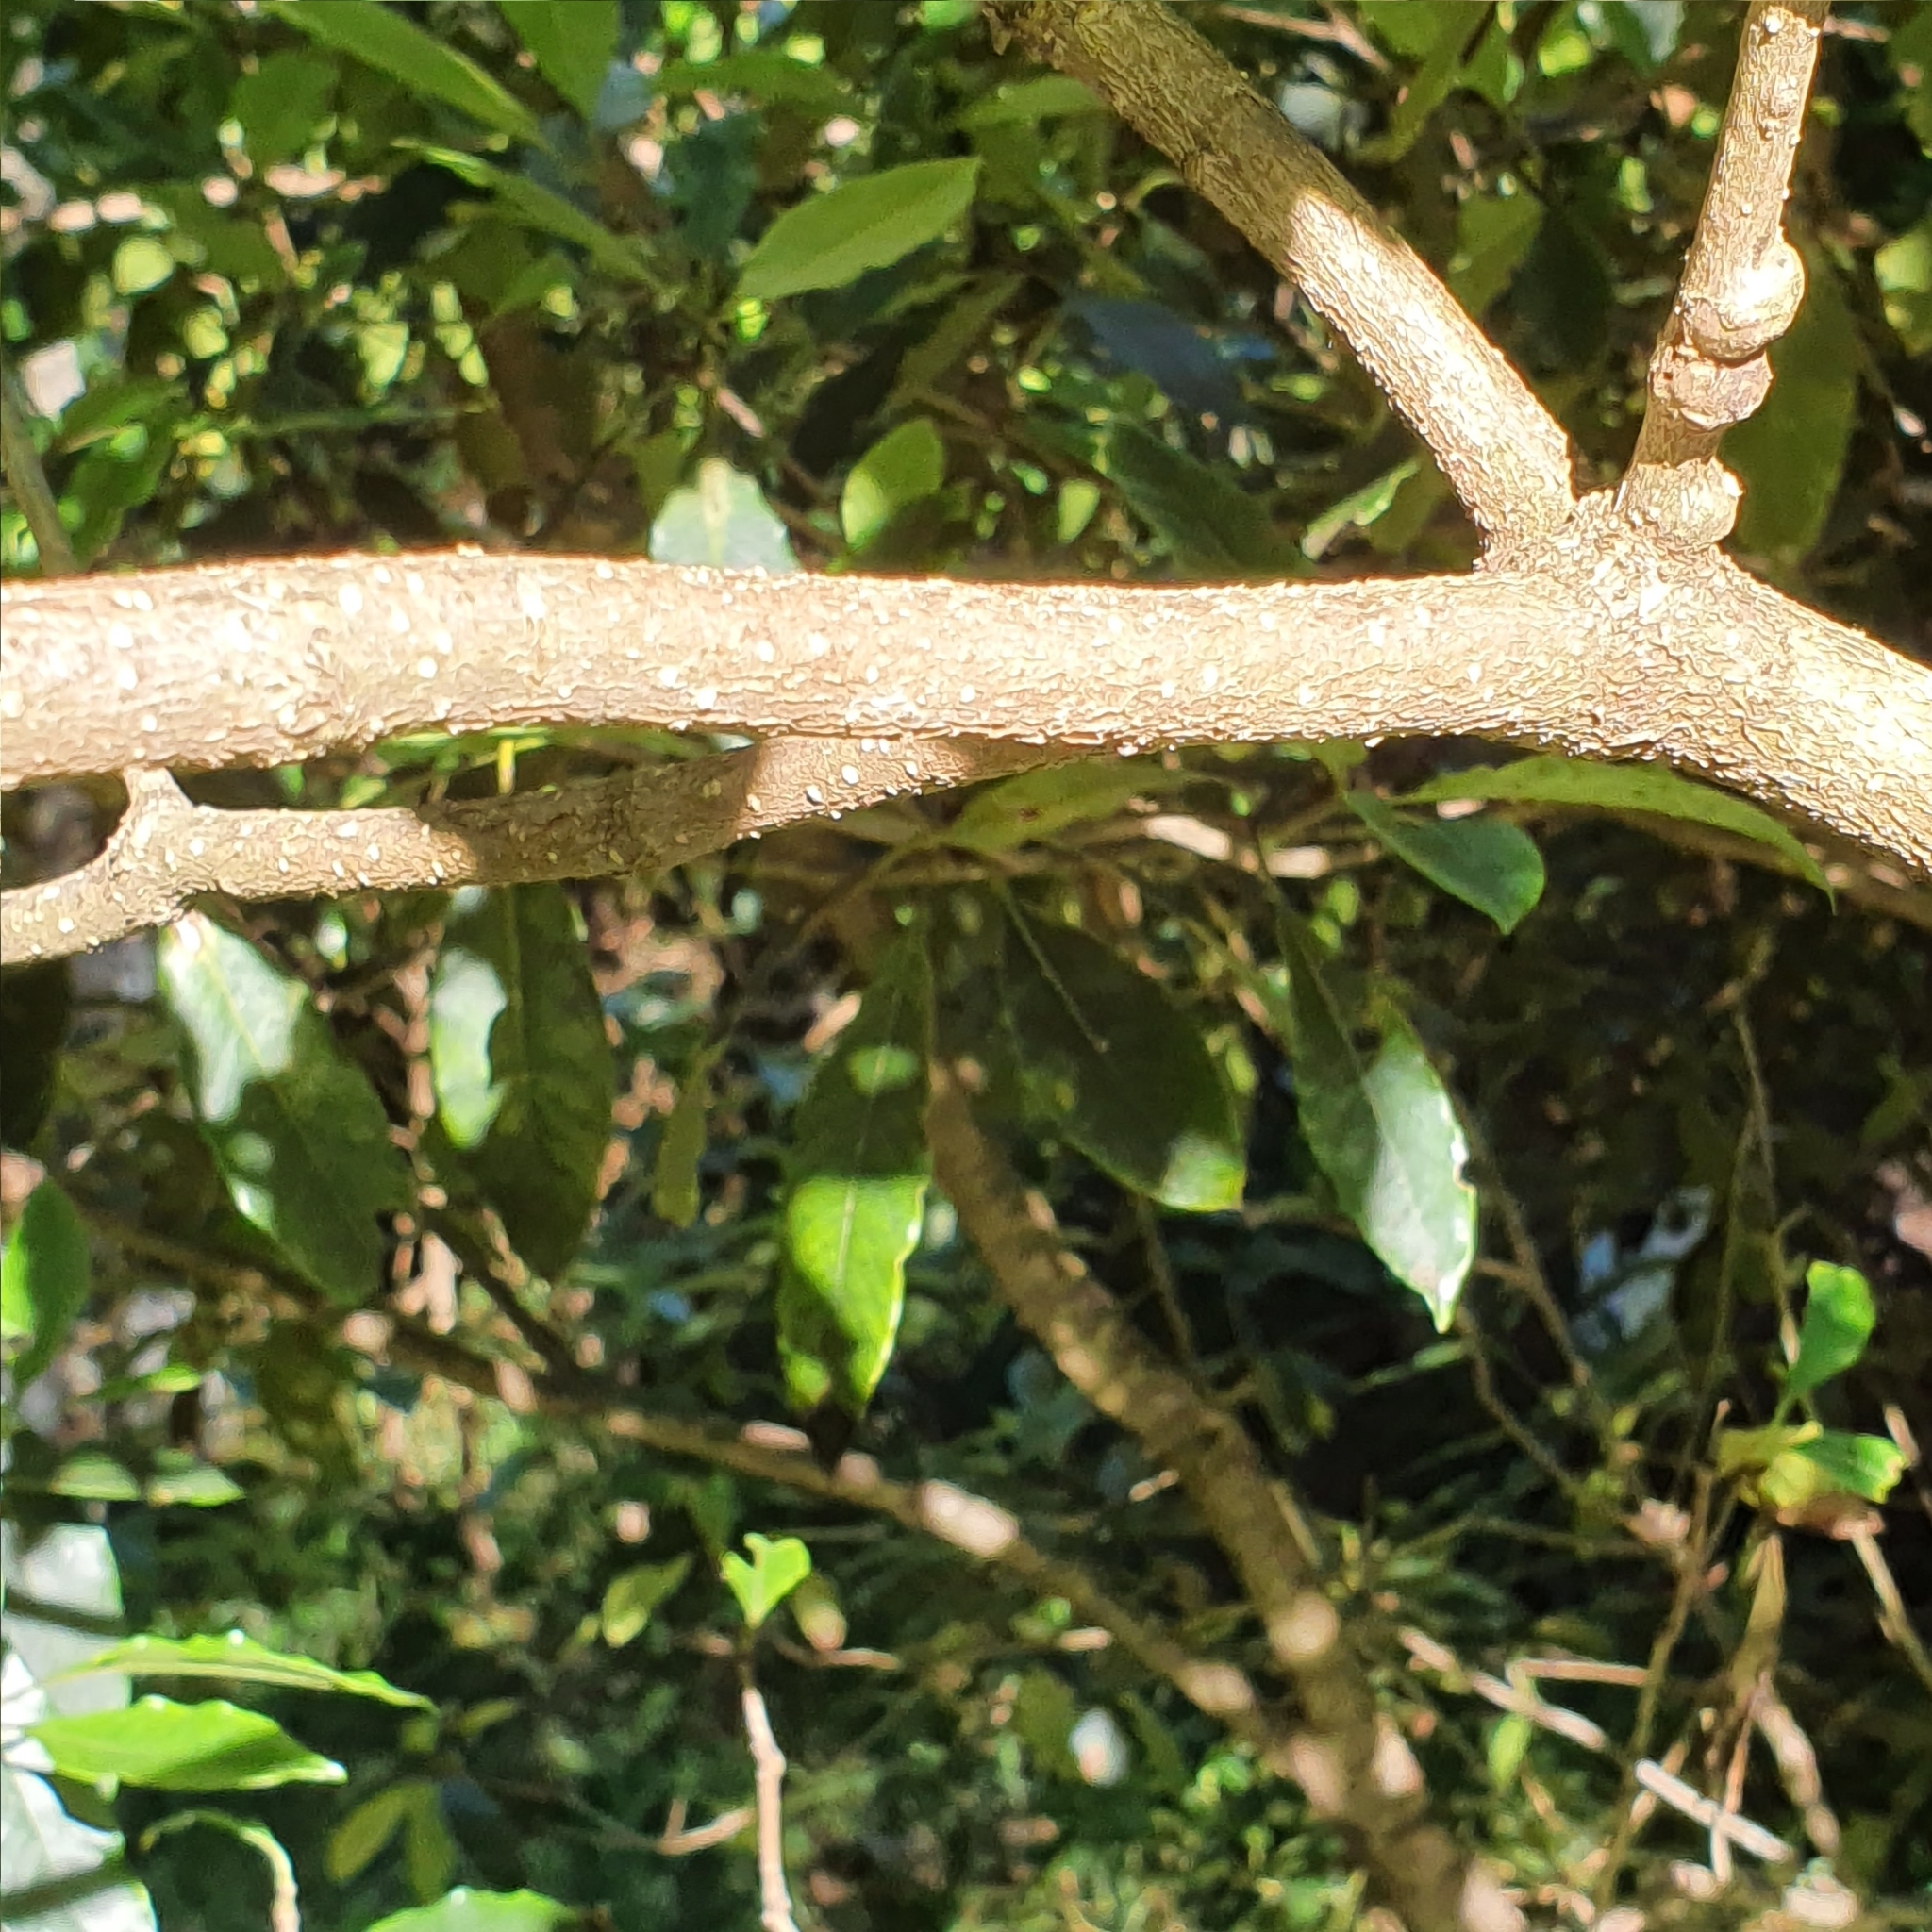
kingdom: Plantae
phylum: Tracheophyta
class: Magnoliopsida
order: Apiales
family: Pittosporaceae
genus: Pittosporum
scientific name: Pittosporum undulatum
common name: Australian cheesewood
